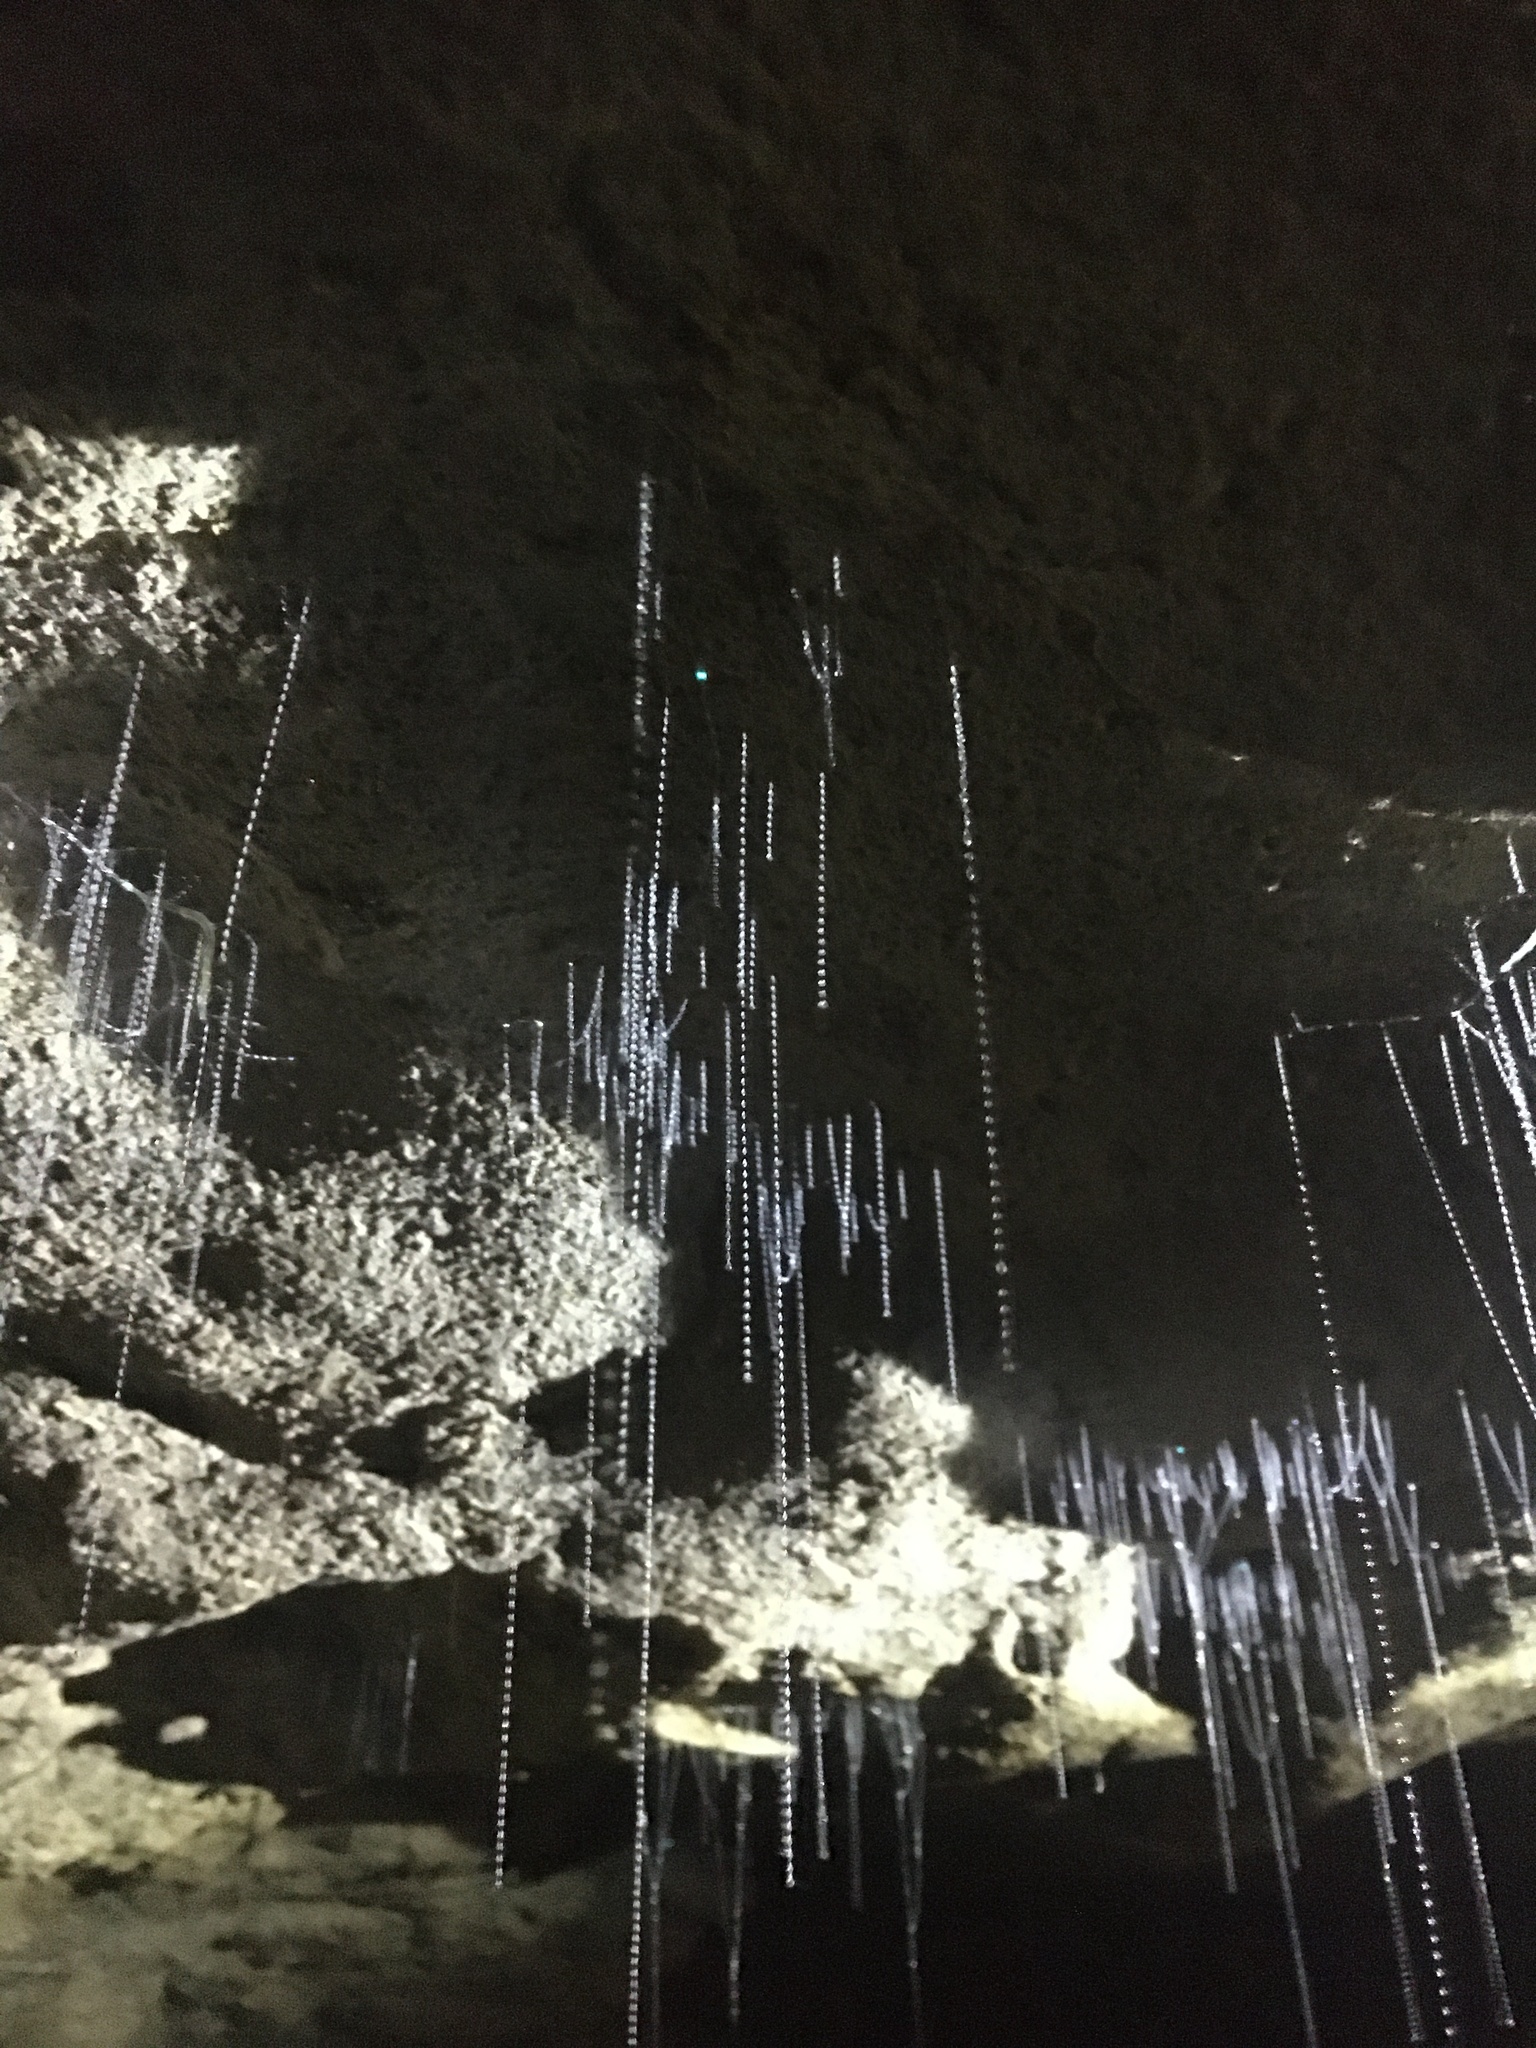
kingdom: Animalia
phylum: Arthropoda
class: Insecta
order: Diptera
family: Keroplatidae
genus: Arachnocampa
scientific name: Arachnocampa luminosa
